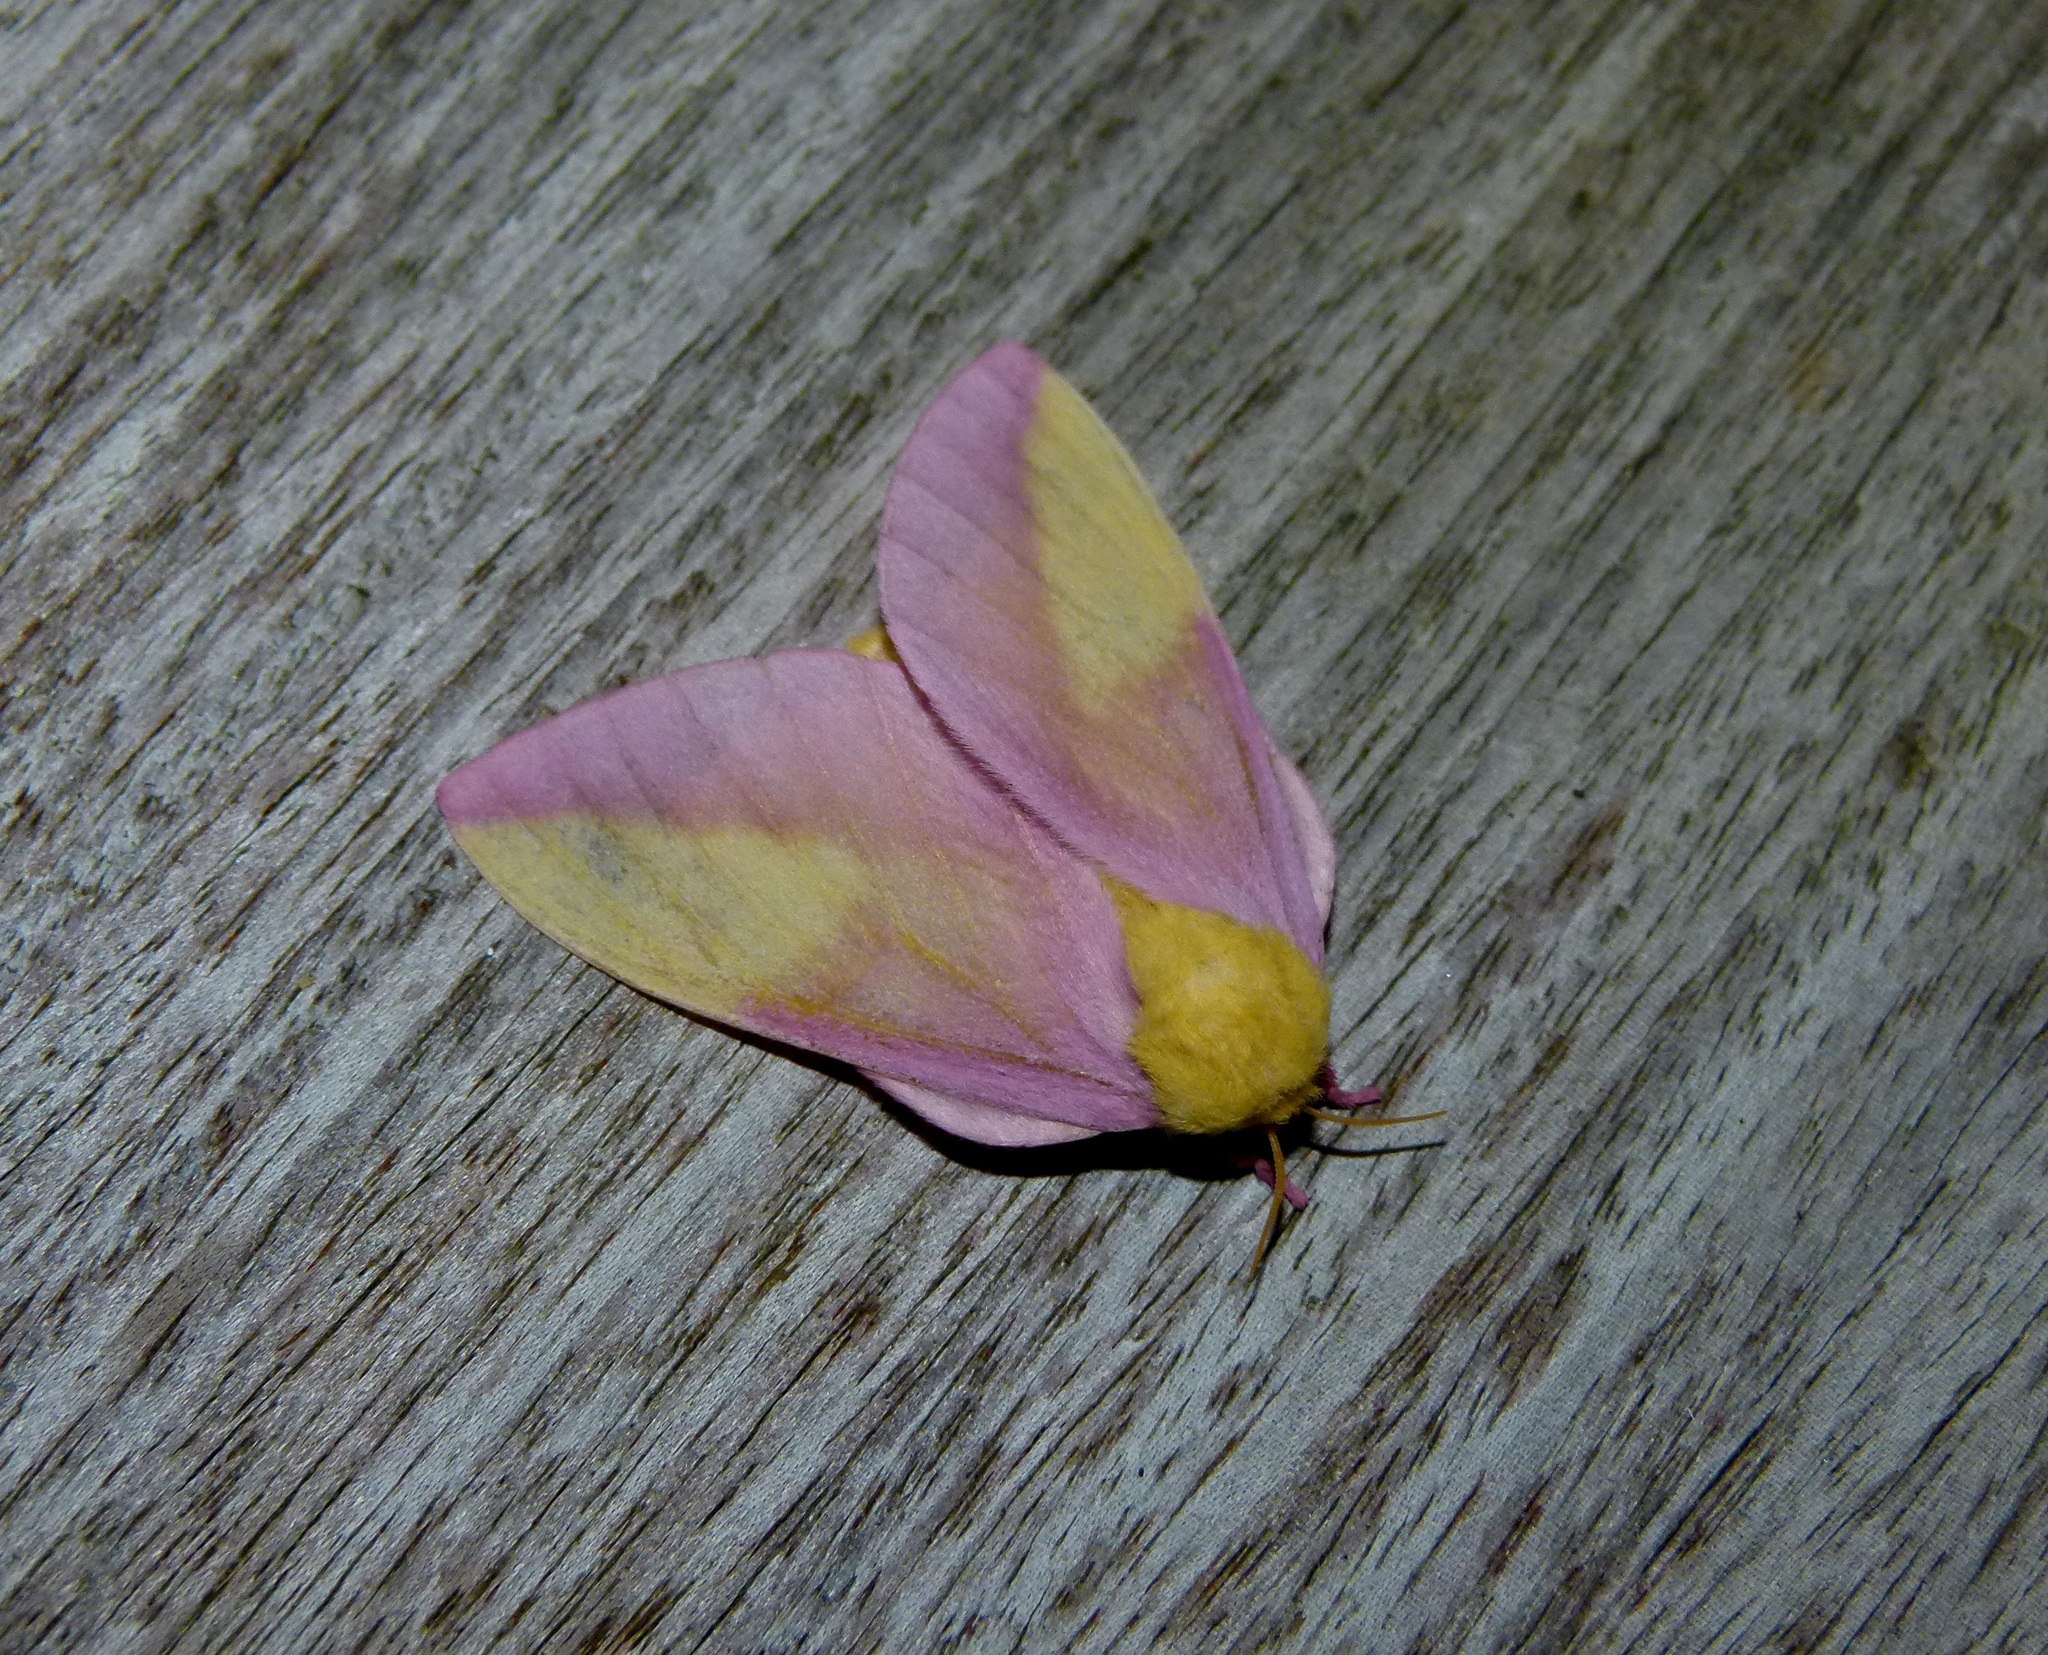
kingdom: Animalia
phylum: Arthropoda
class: Insecta
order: Lepidoptera
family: Saturniidae
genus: Dryocampa
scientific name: Dryocampa rubicunda
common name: Rosy maple moth
